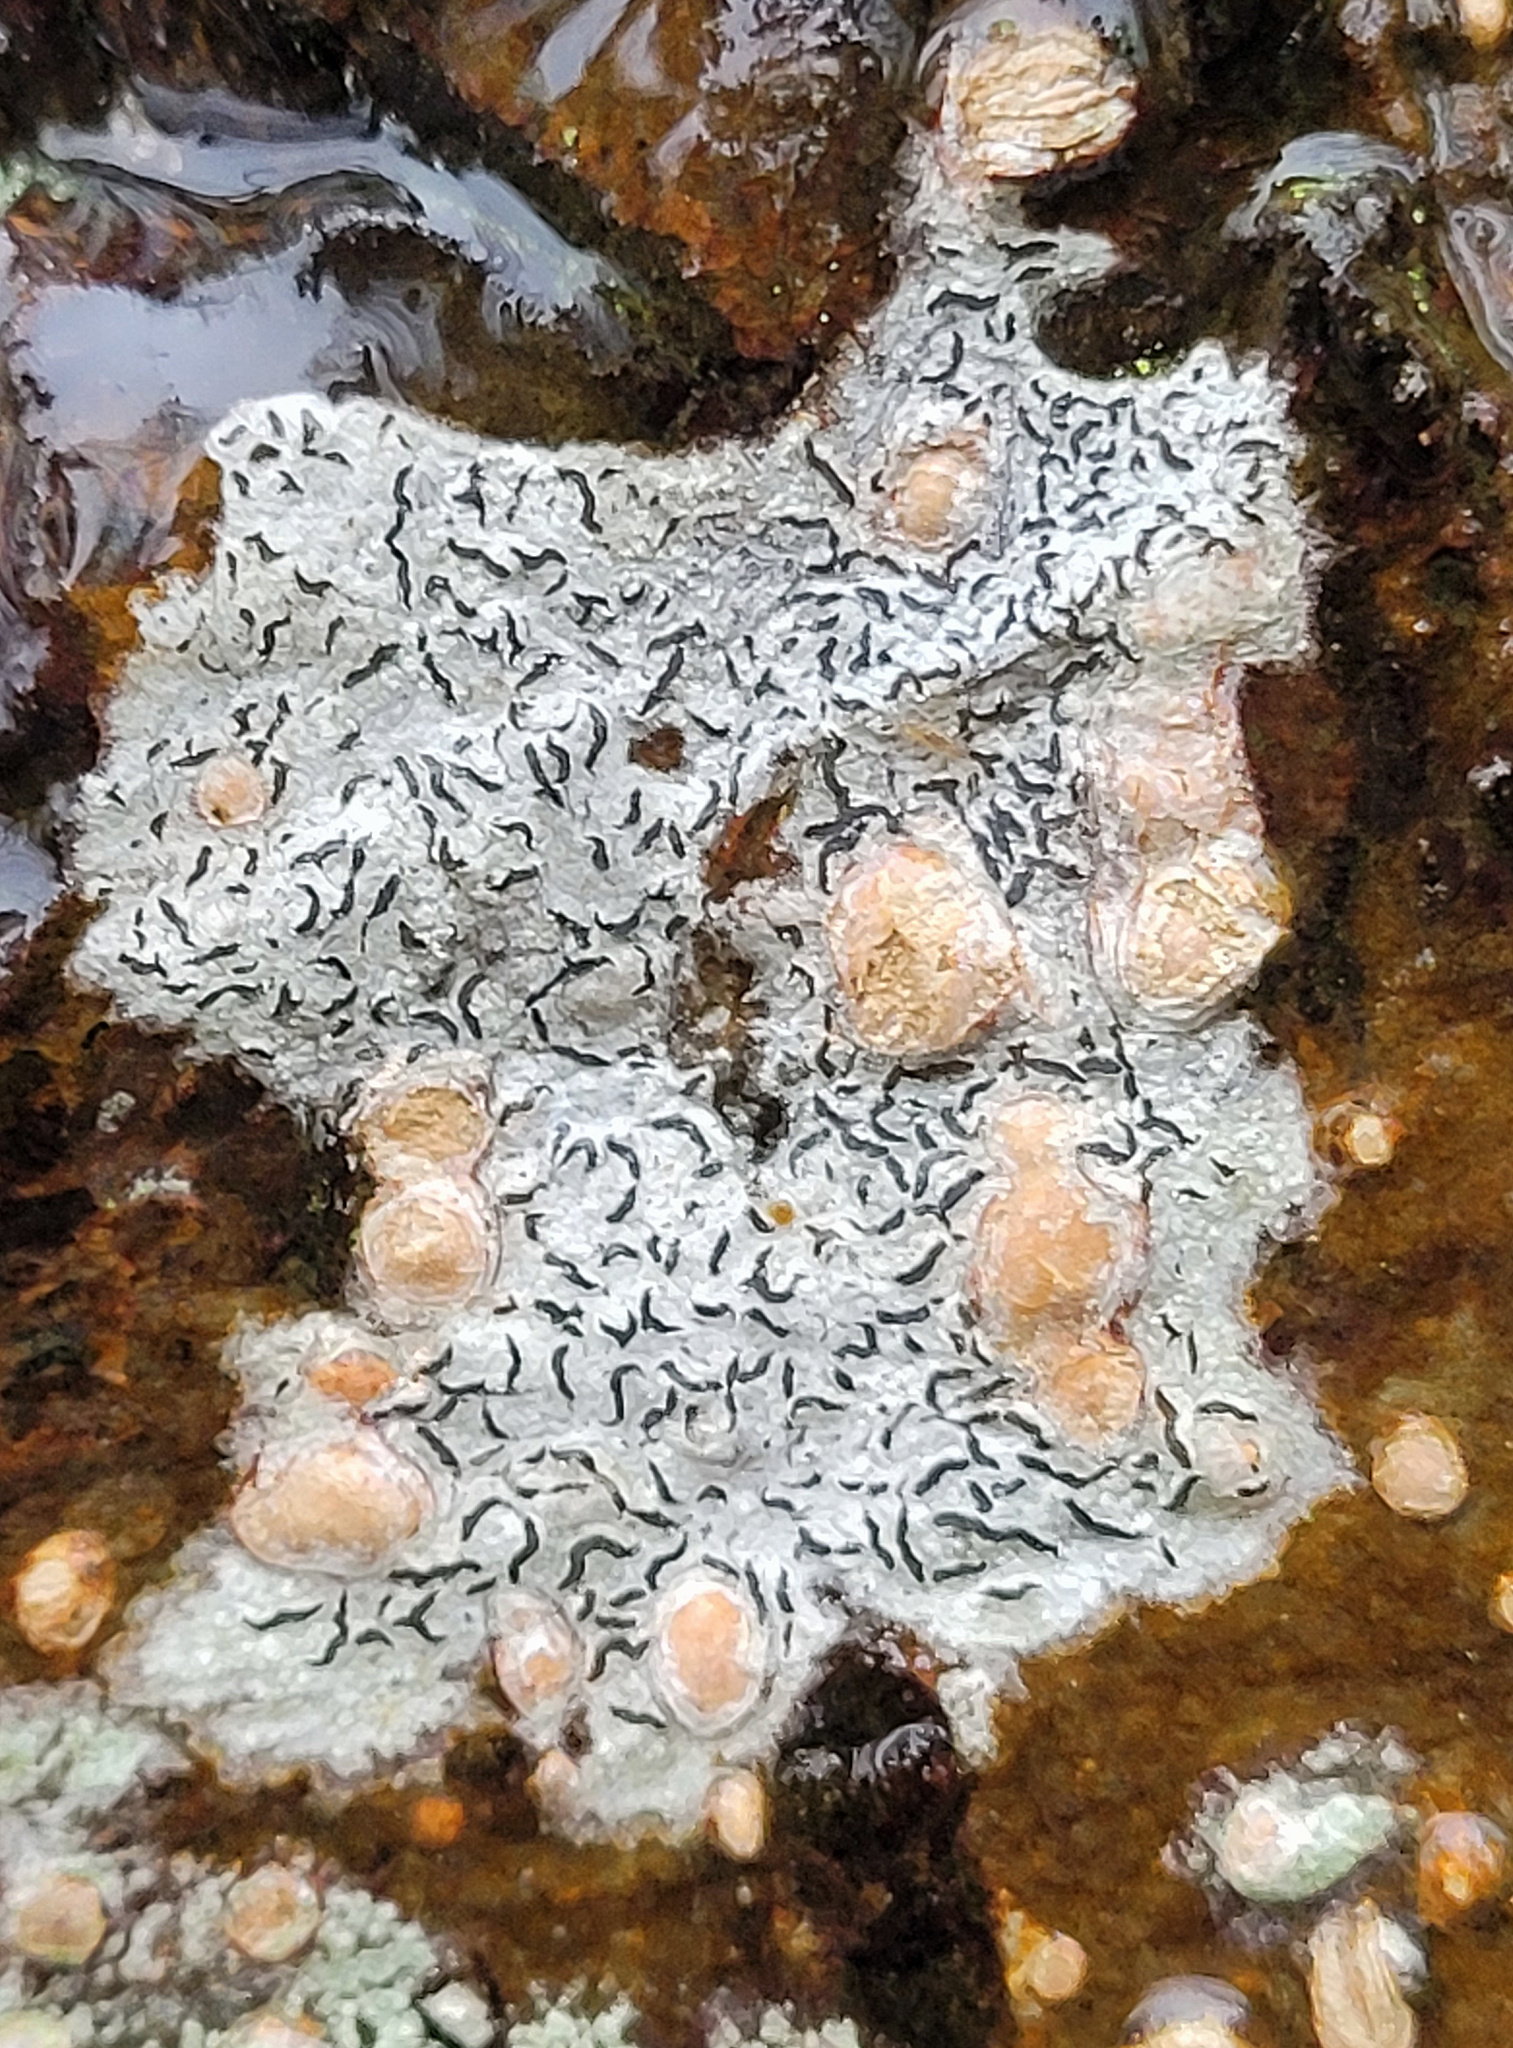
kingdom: Fungi
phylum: Ascomycota
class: Lecanoromycetes
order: Ostropales
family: Graphidaceae
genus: Graphis
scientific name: Graphis scripta
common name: Script lichen
